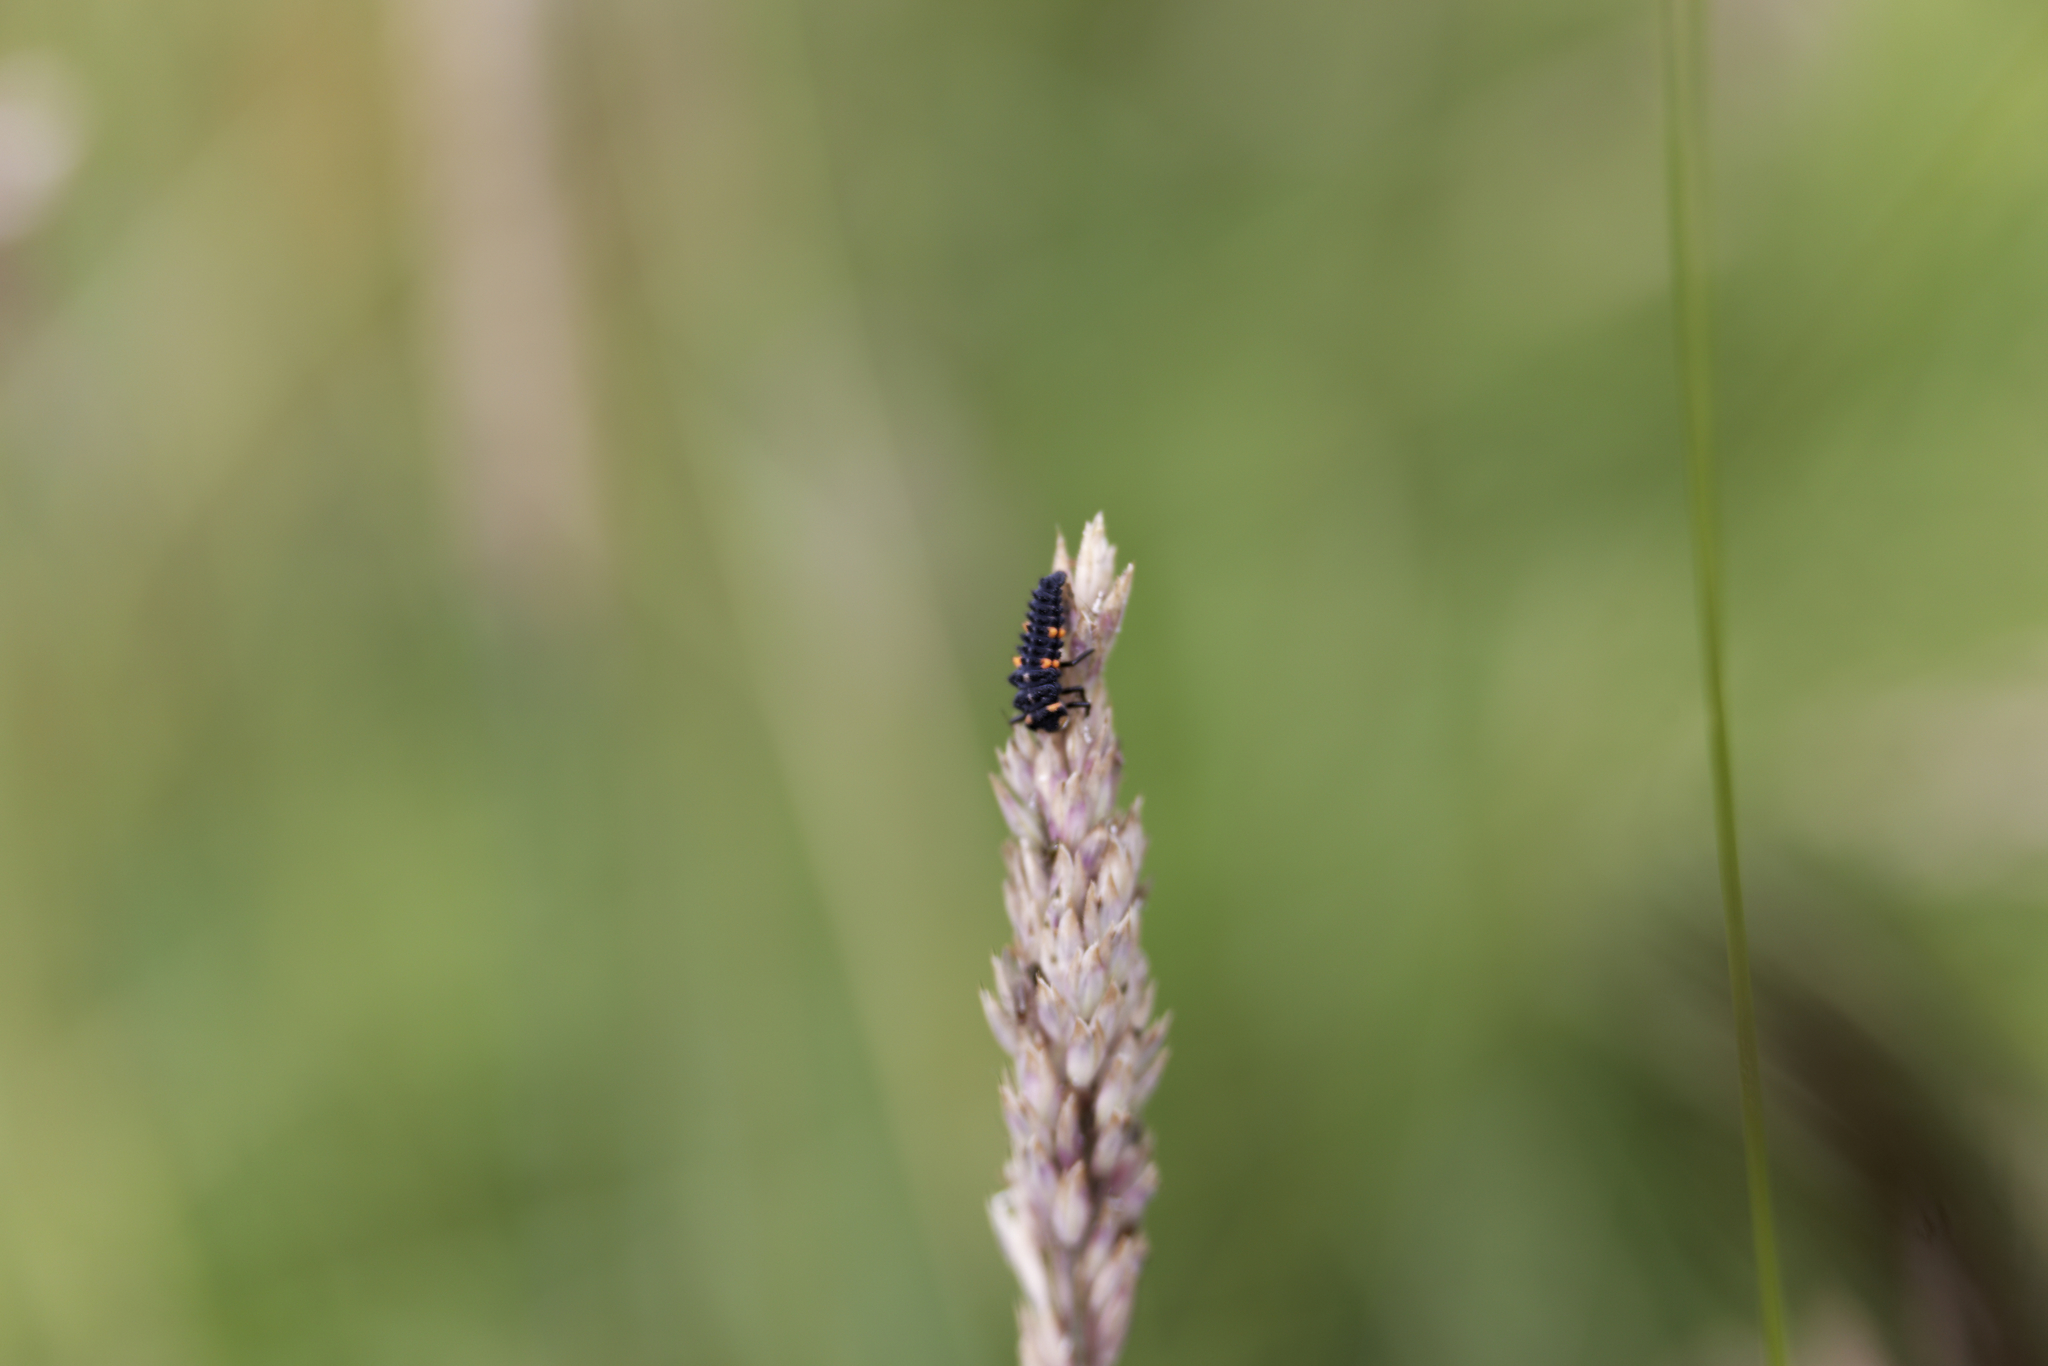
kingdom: Animalia
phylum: Arthropoda
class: Insecta
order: Coleoptera
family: Coccinellidae
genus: Coccinella
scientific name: Coccinella septempunctata
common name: Sevenspotted lady beetle
